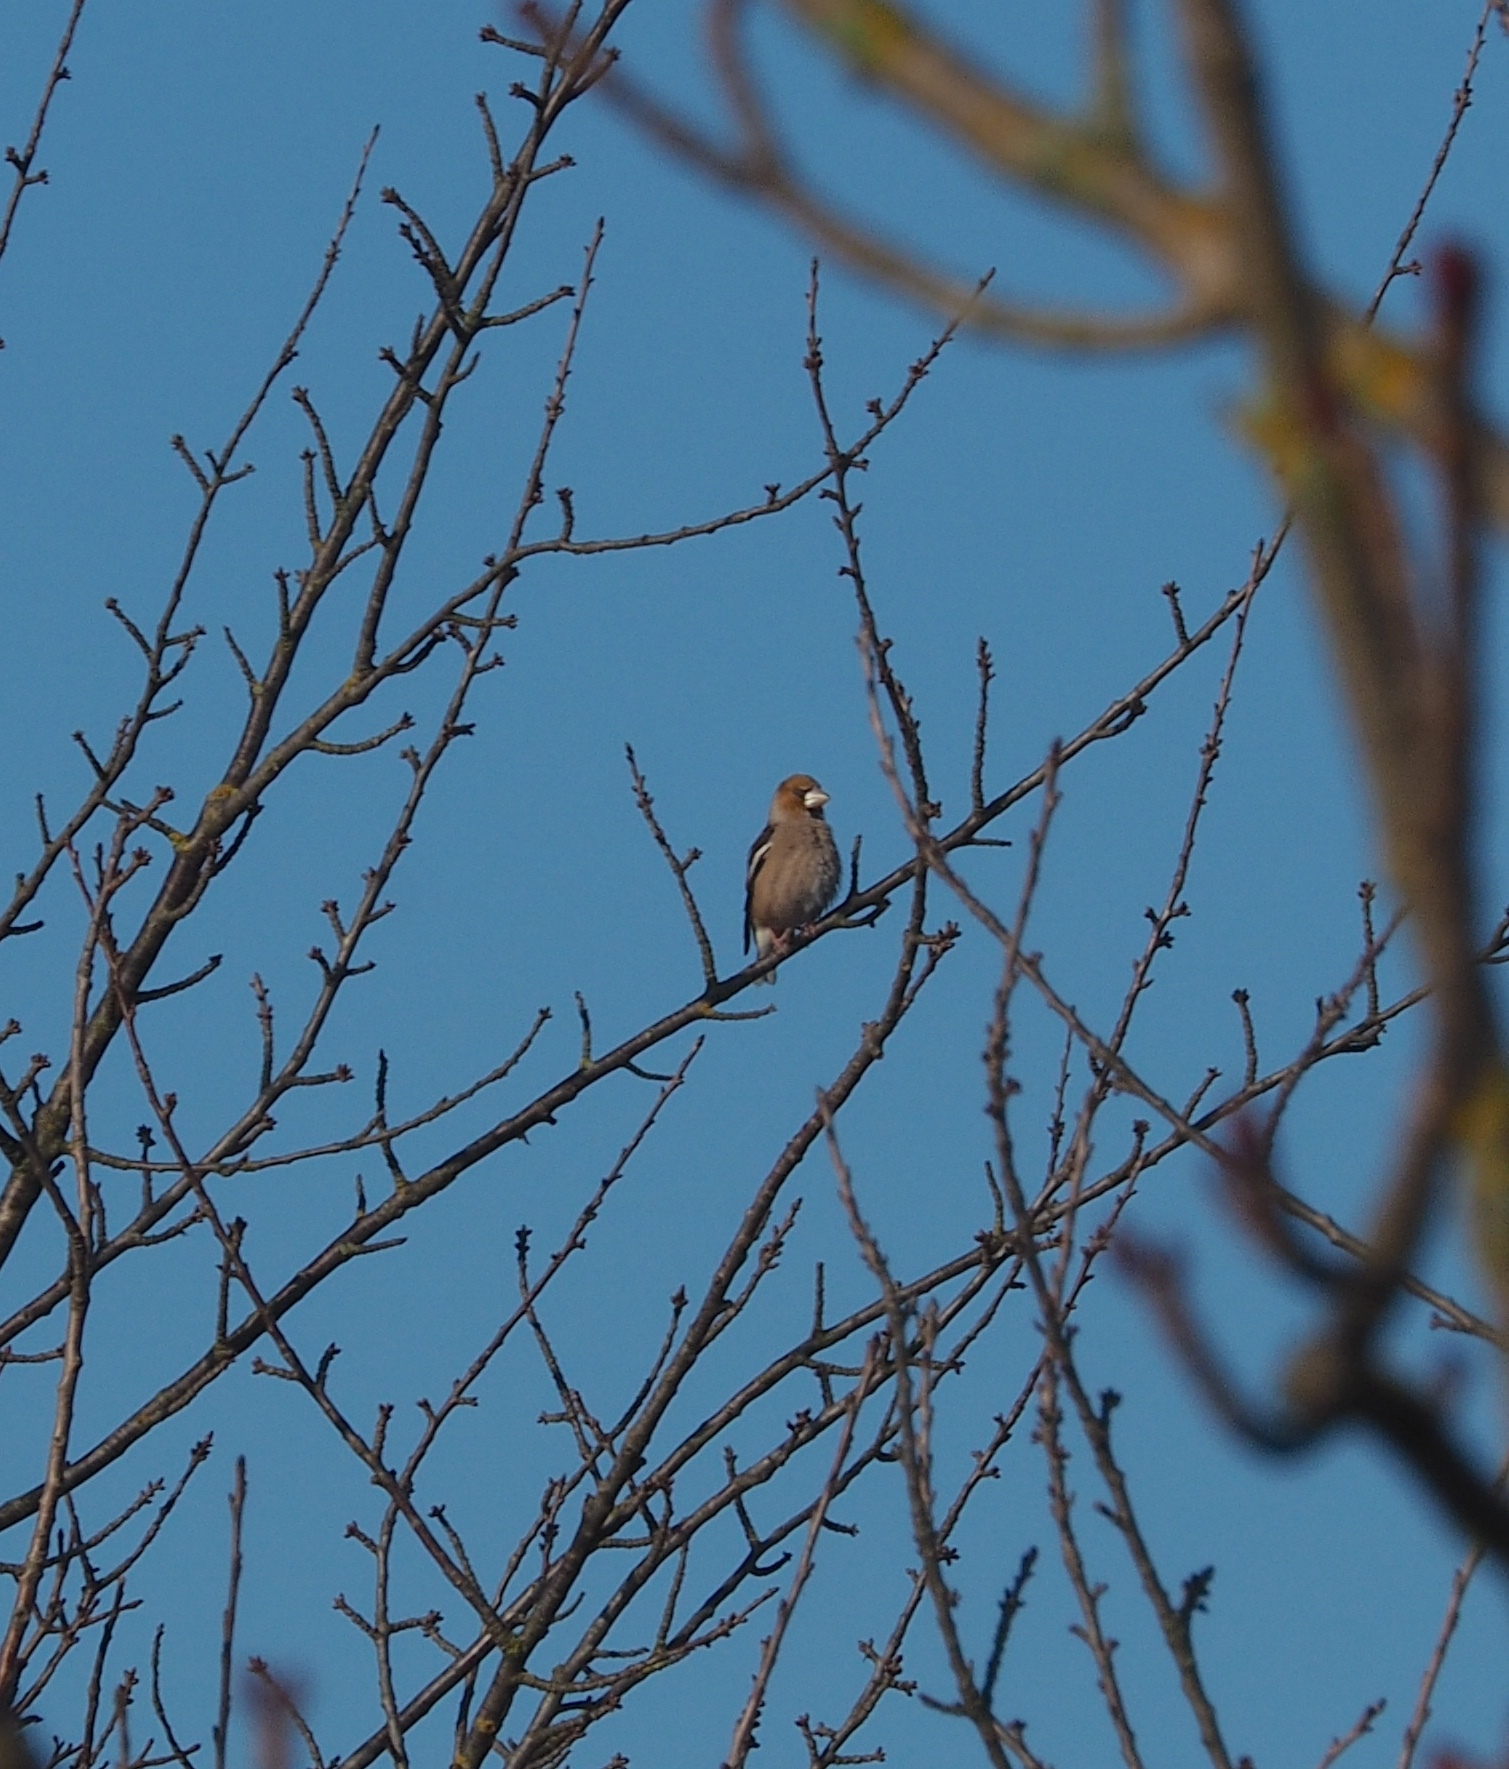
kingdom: Animalia
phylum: Chordata
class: Aves
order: Passeriformes
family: Fringillidae
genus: Coccothraustes
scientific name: Coccothraustes coccothraustes
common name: Hawfinch
